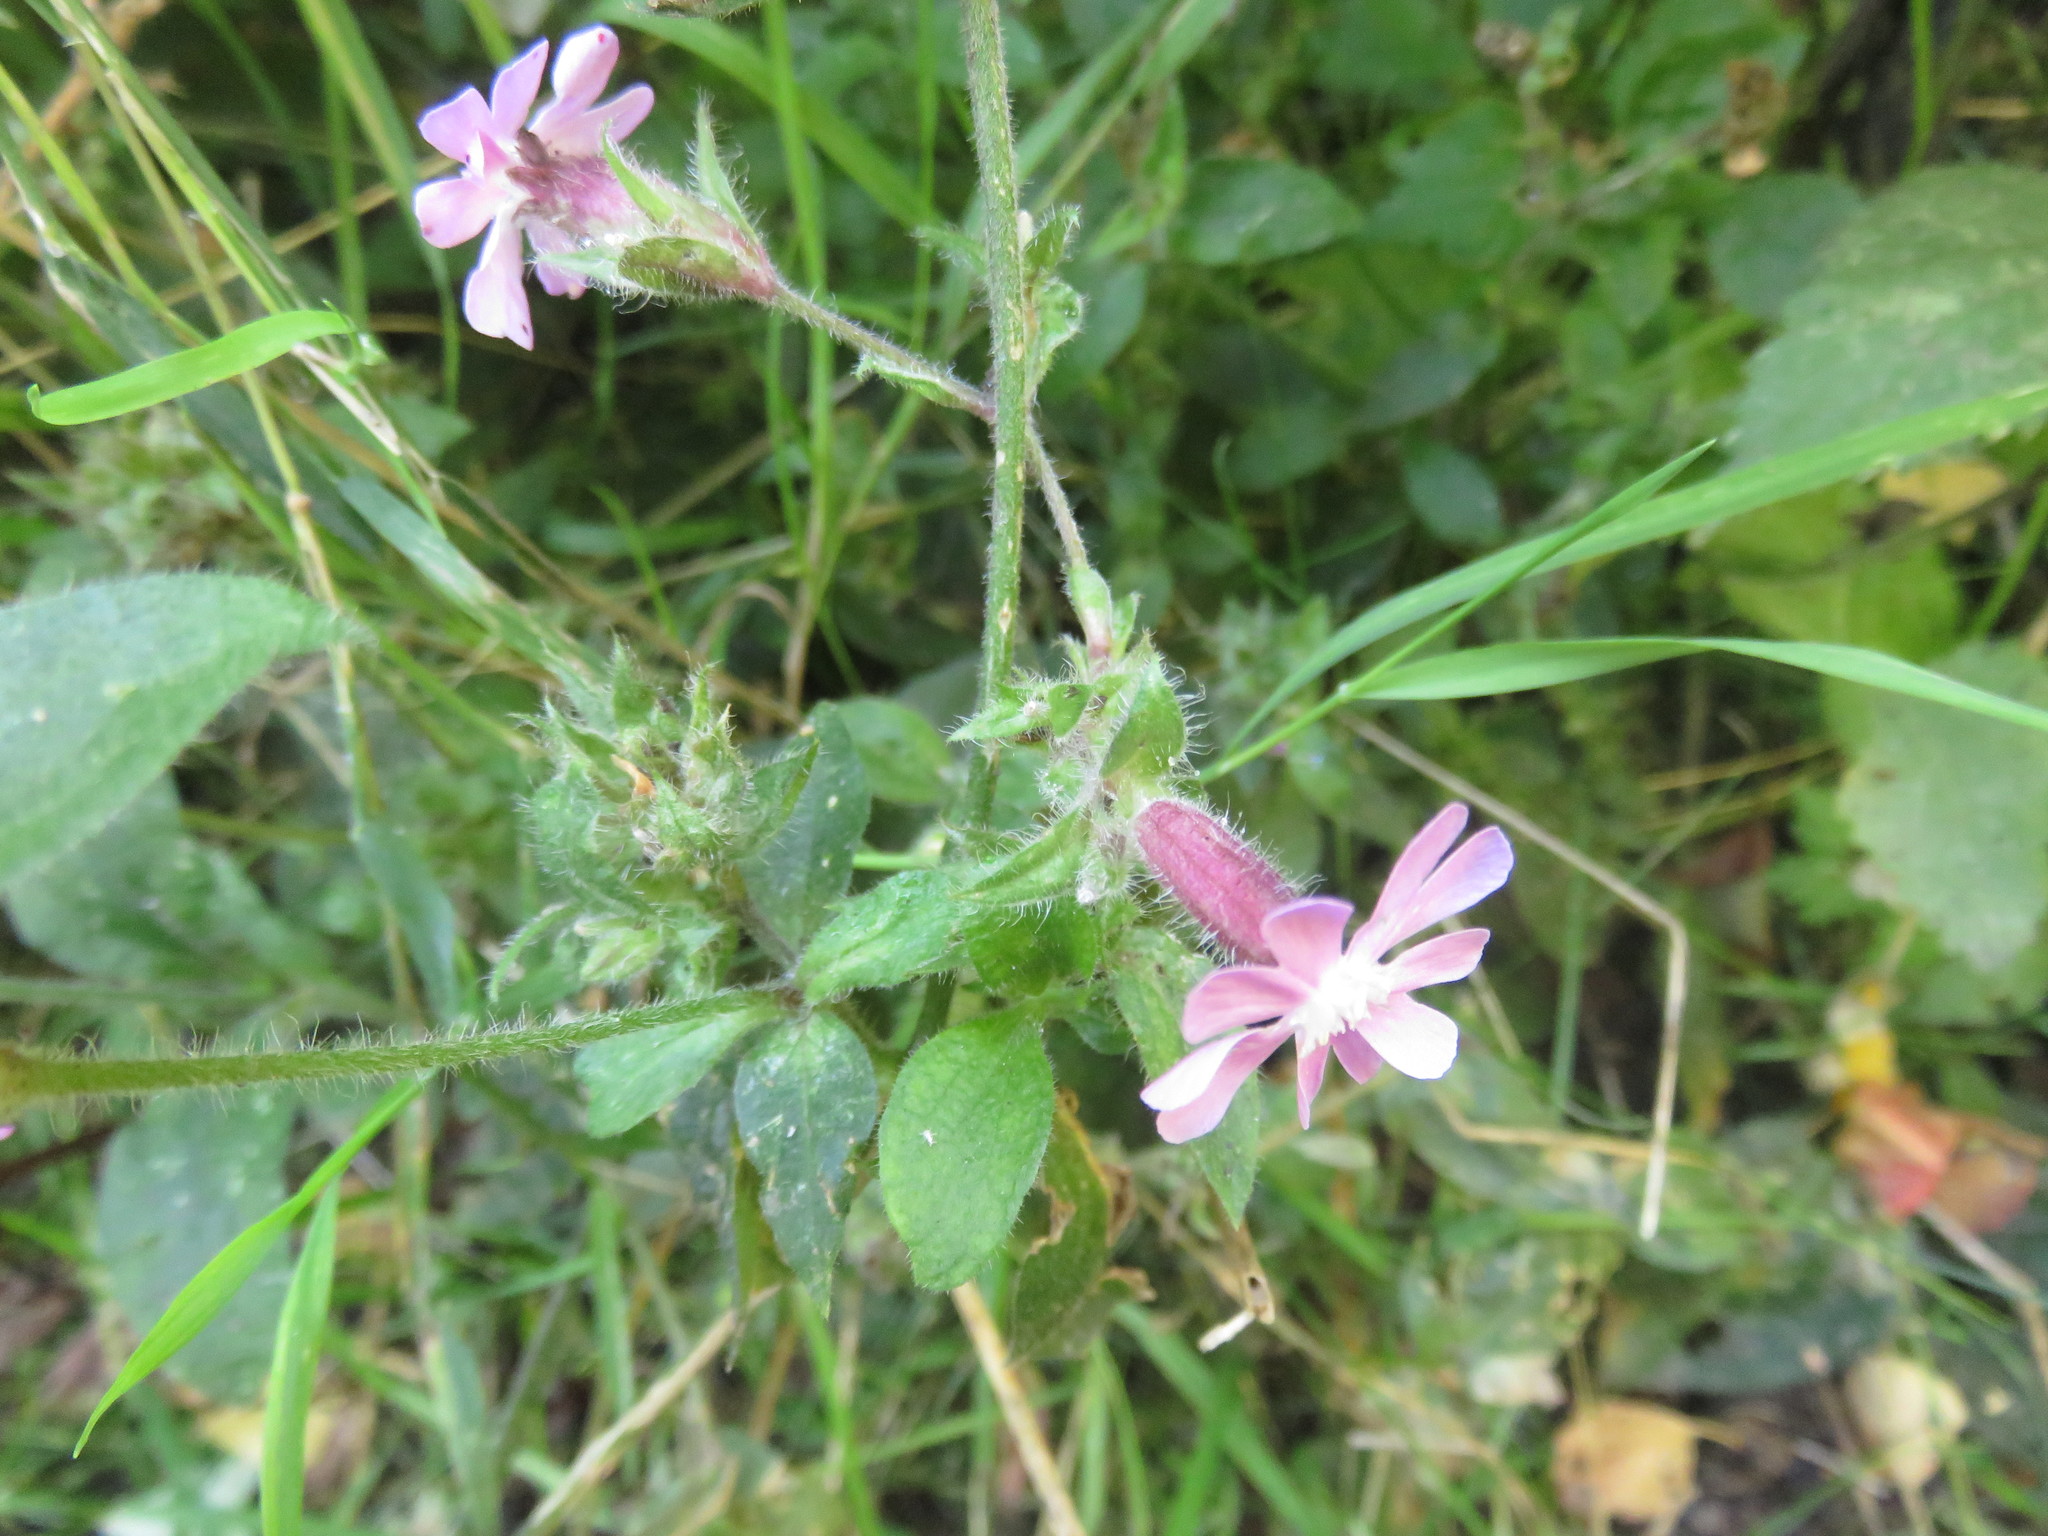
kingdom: Plantae
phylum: Tracheophyta
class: Magnoliopsida
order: Caryophyllales
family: Caryophyllaceae
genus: Silene
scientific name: Silene hampeana
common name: Catchfly
